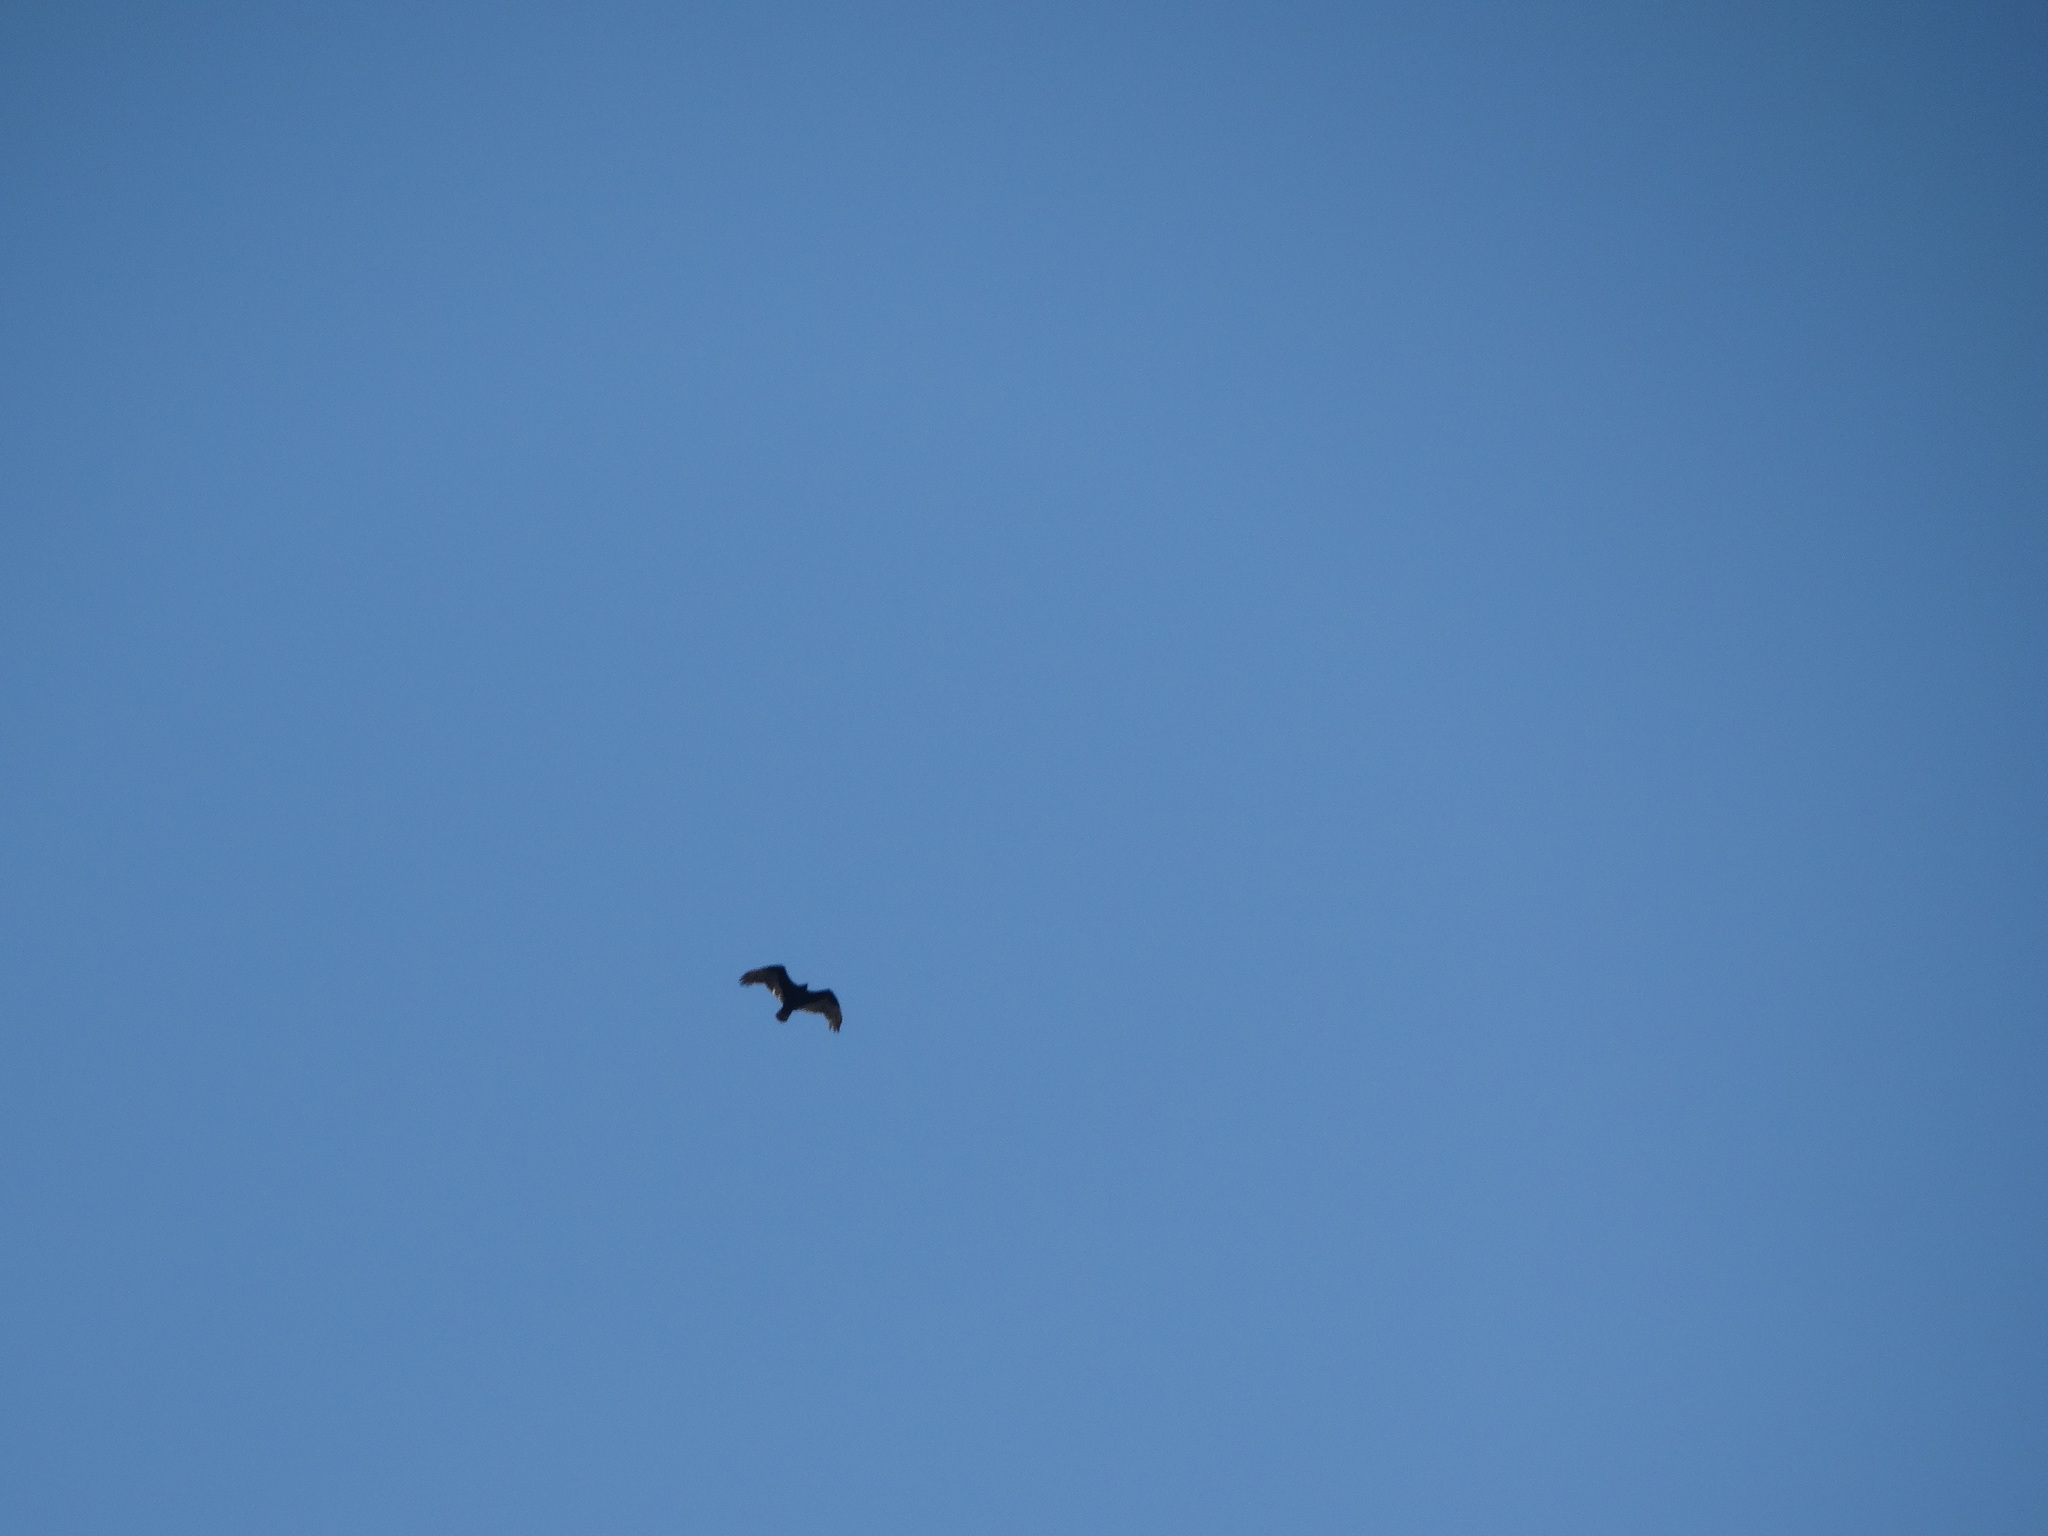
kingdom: Animalia
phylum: Chordata
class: Aves
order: Accipitriformes
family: Cathartidae
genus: Cathartes
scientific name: Cathartes aura
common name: Turkey vulture
